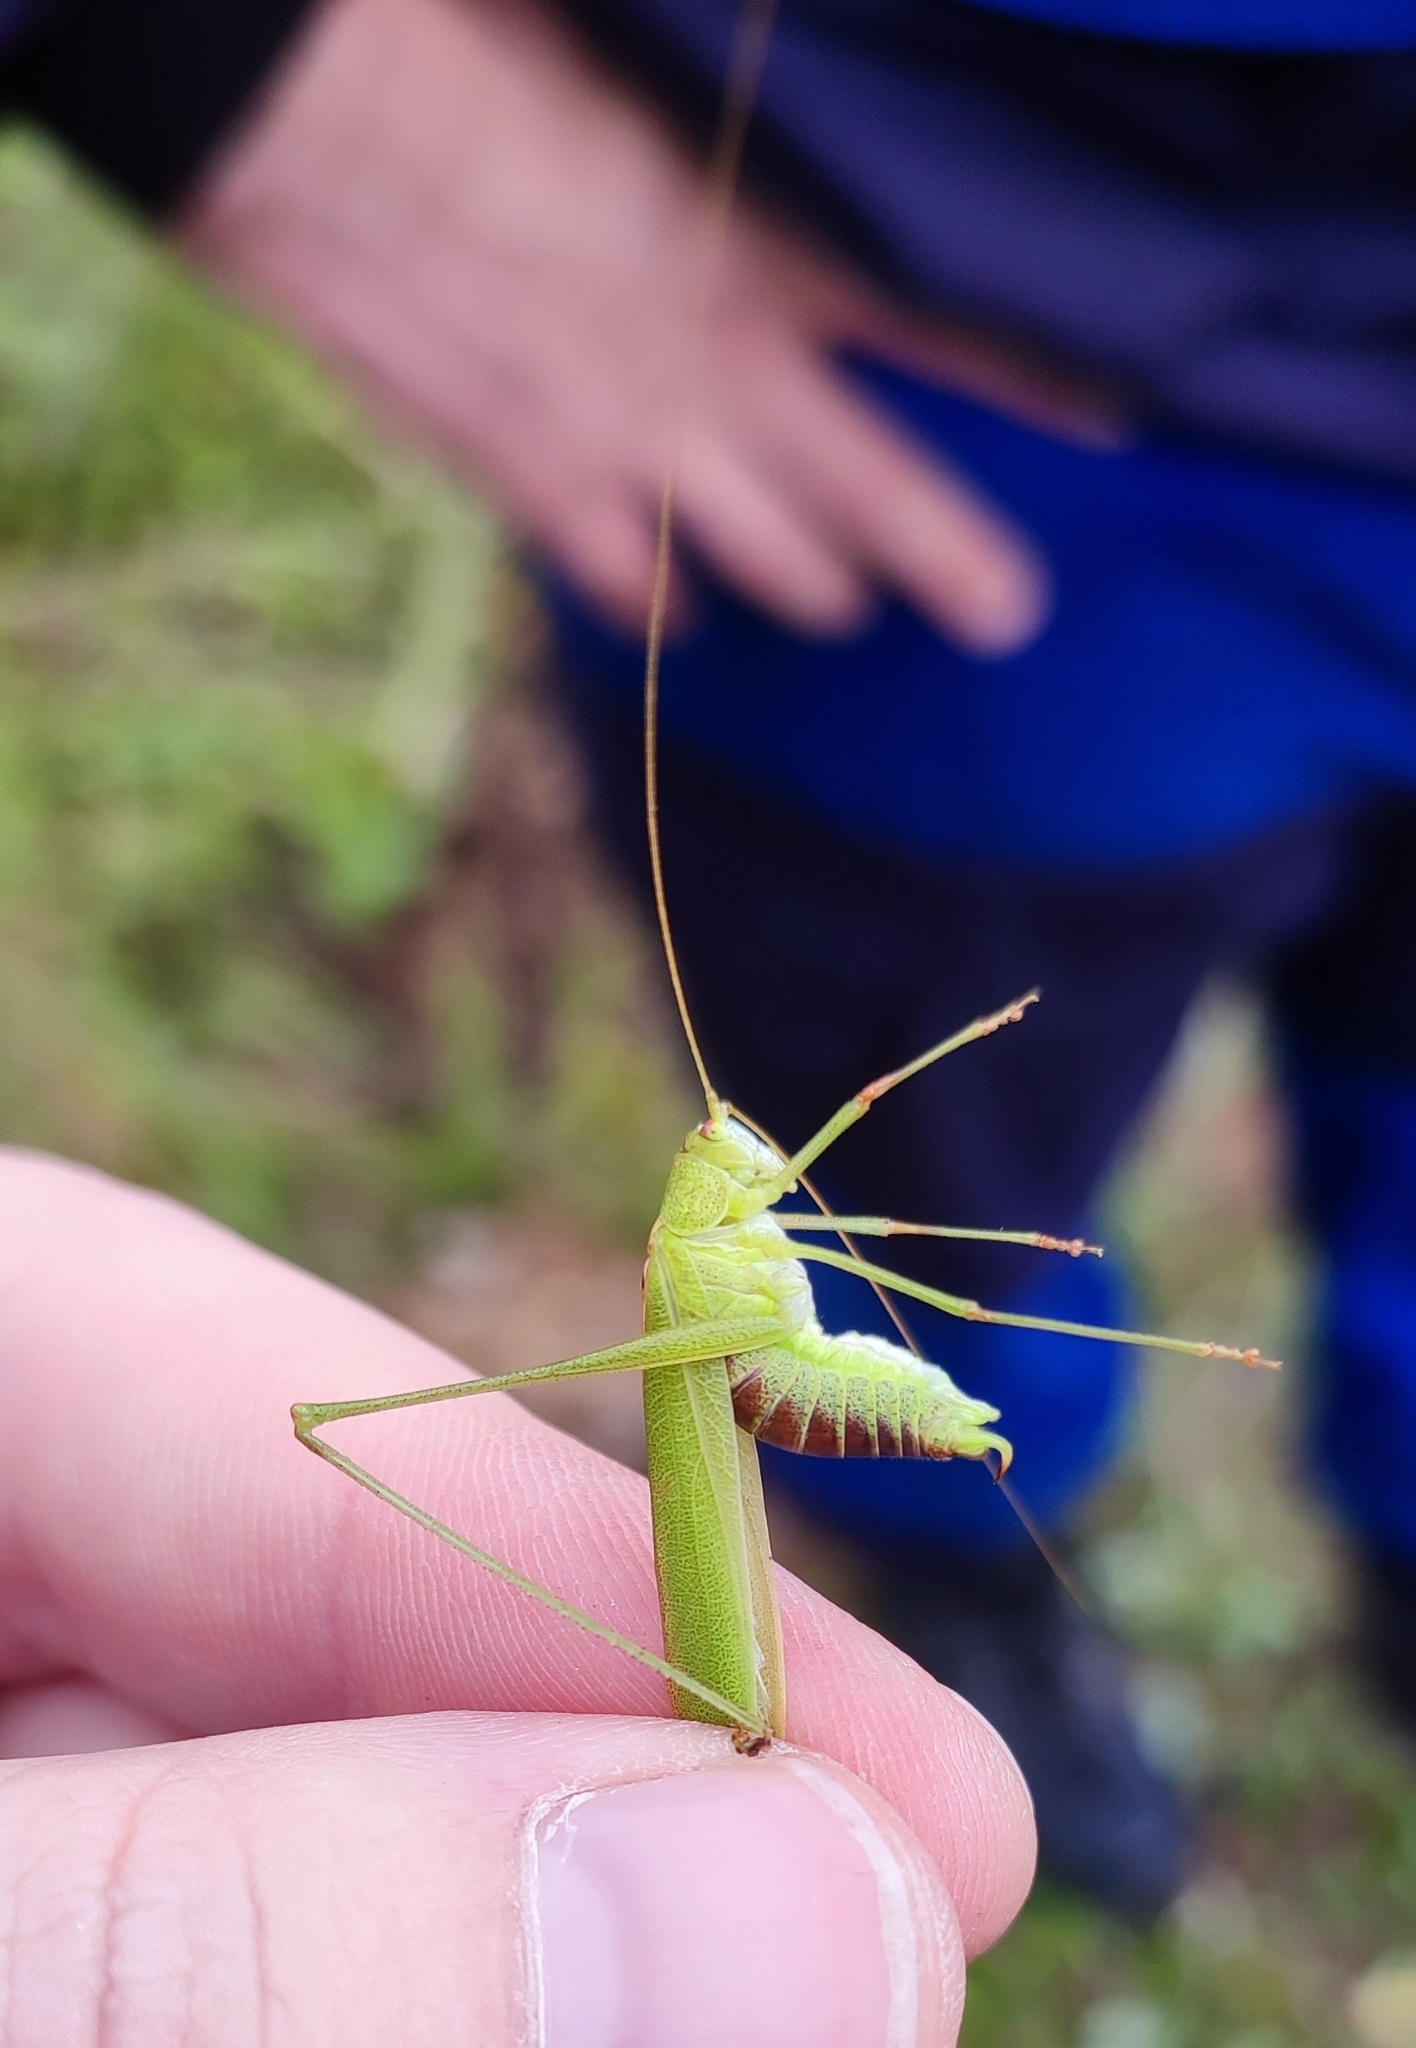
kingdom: Animalia
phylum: Arthropoda
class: Insecta
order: Orthoptera
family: Tettigoniidae
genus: Phaneroptera
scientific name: Phaneroptera falcata
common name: Sickle-bearing bush-cricket
